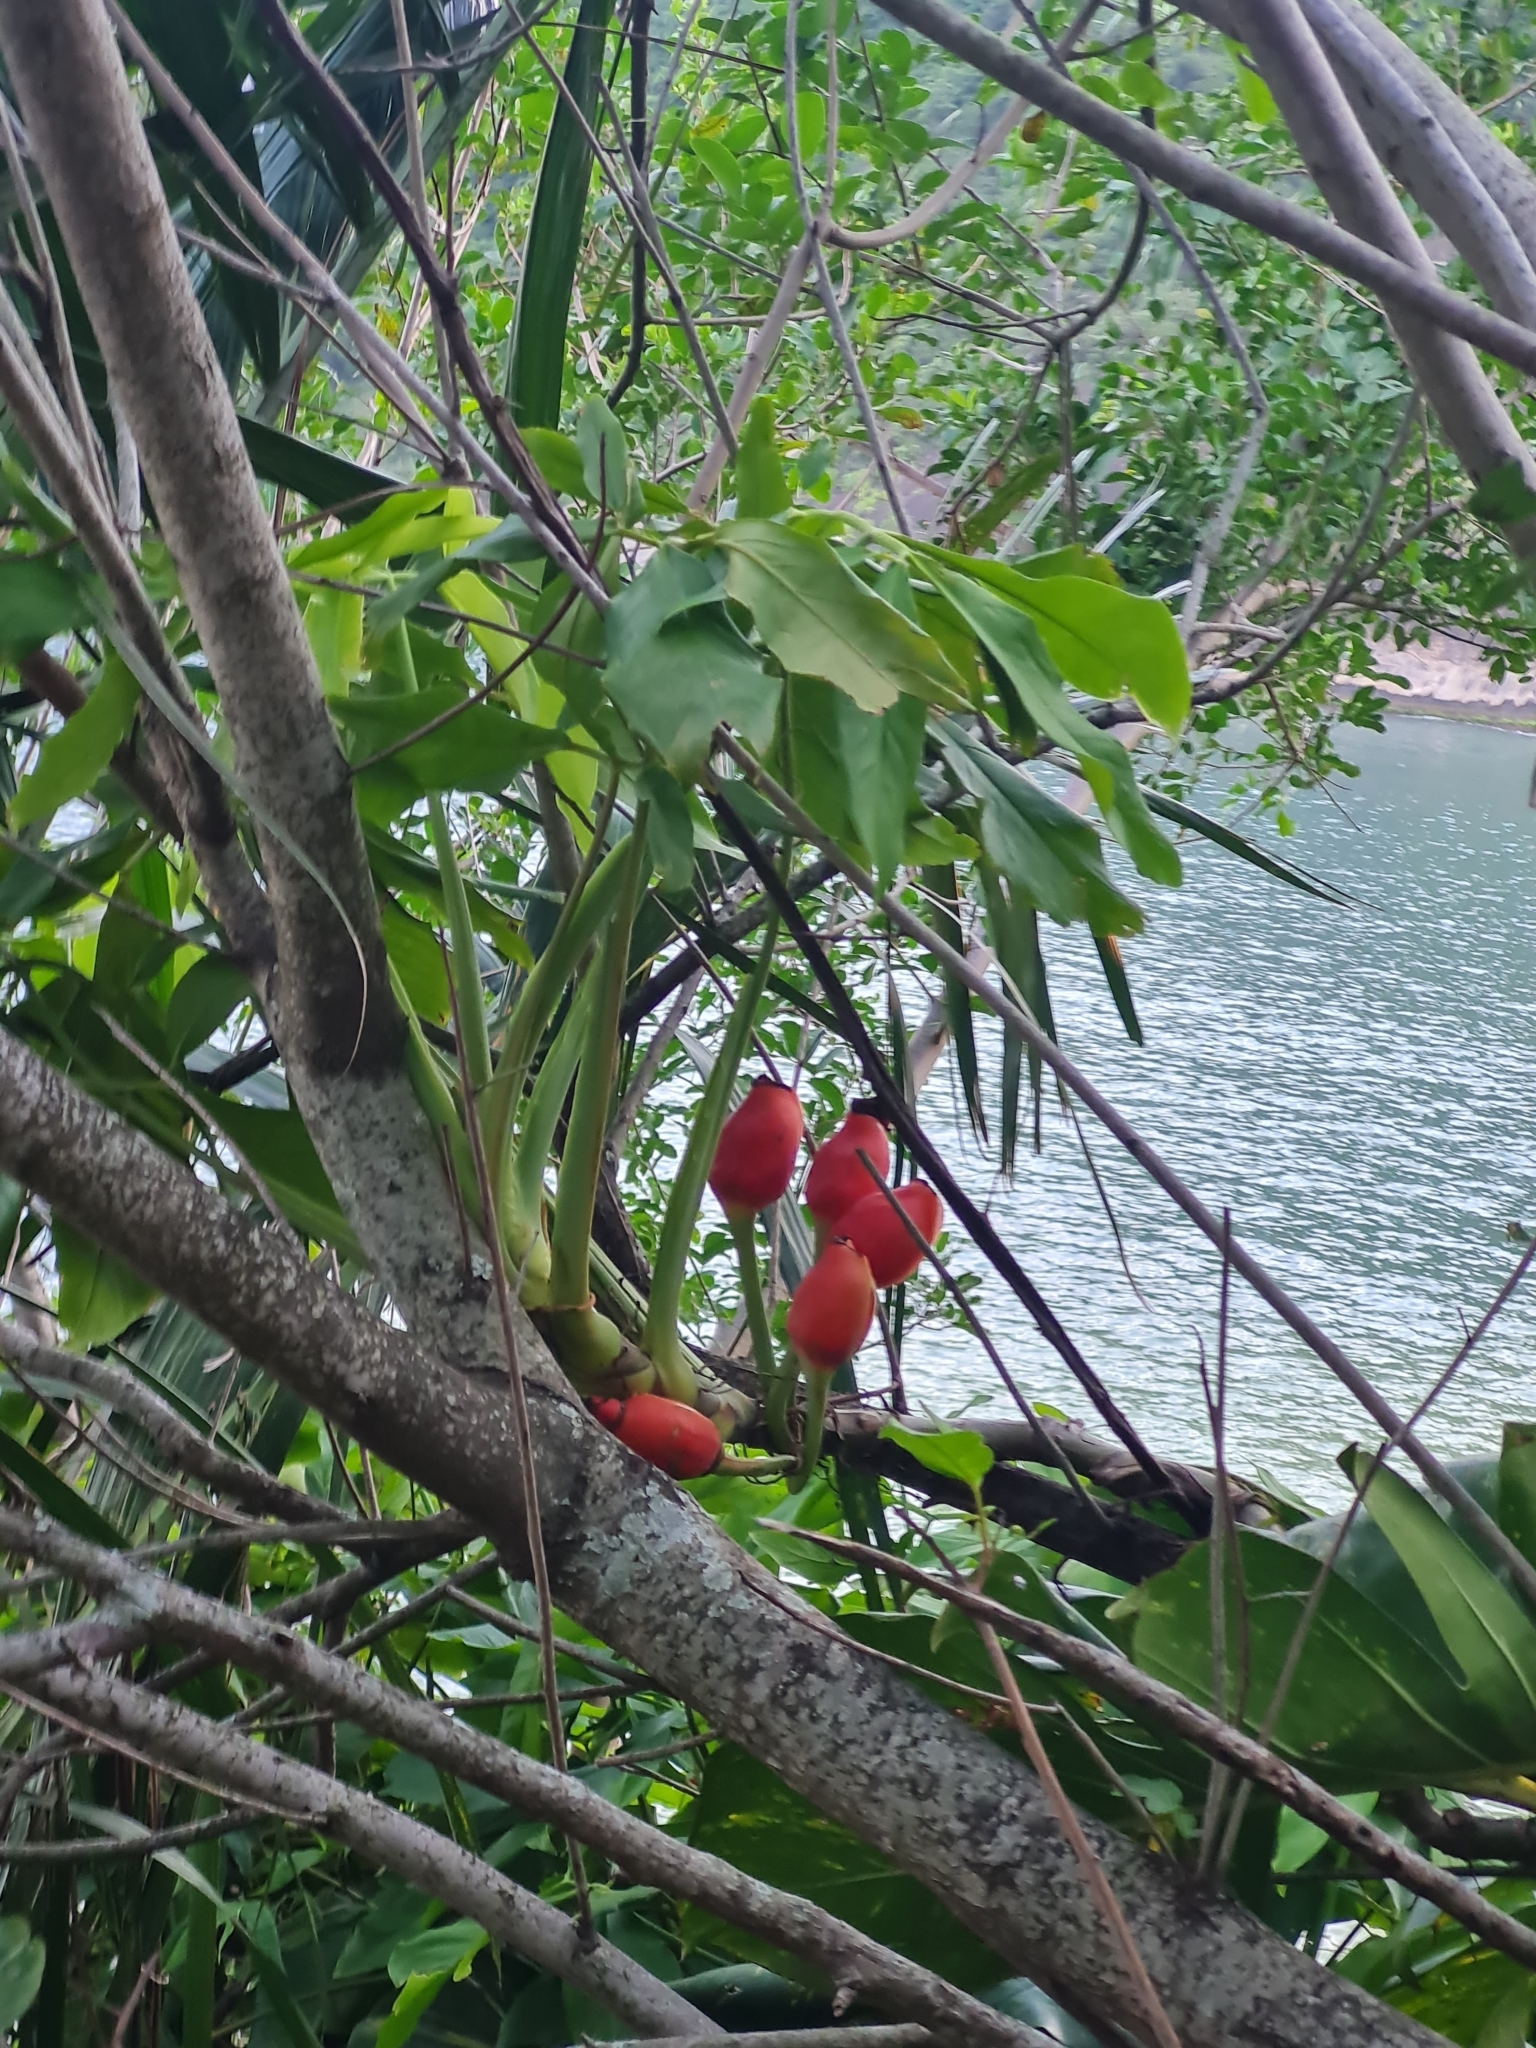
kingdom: Plantae
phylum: Tracheophyta
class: Liliopsida
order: Alismatales
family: Araceae
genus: Syngonium
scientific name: Syngonium angustatum
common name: Fivefingers
